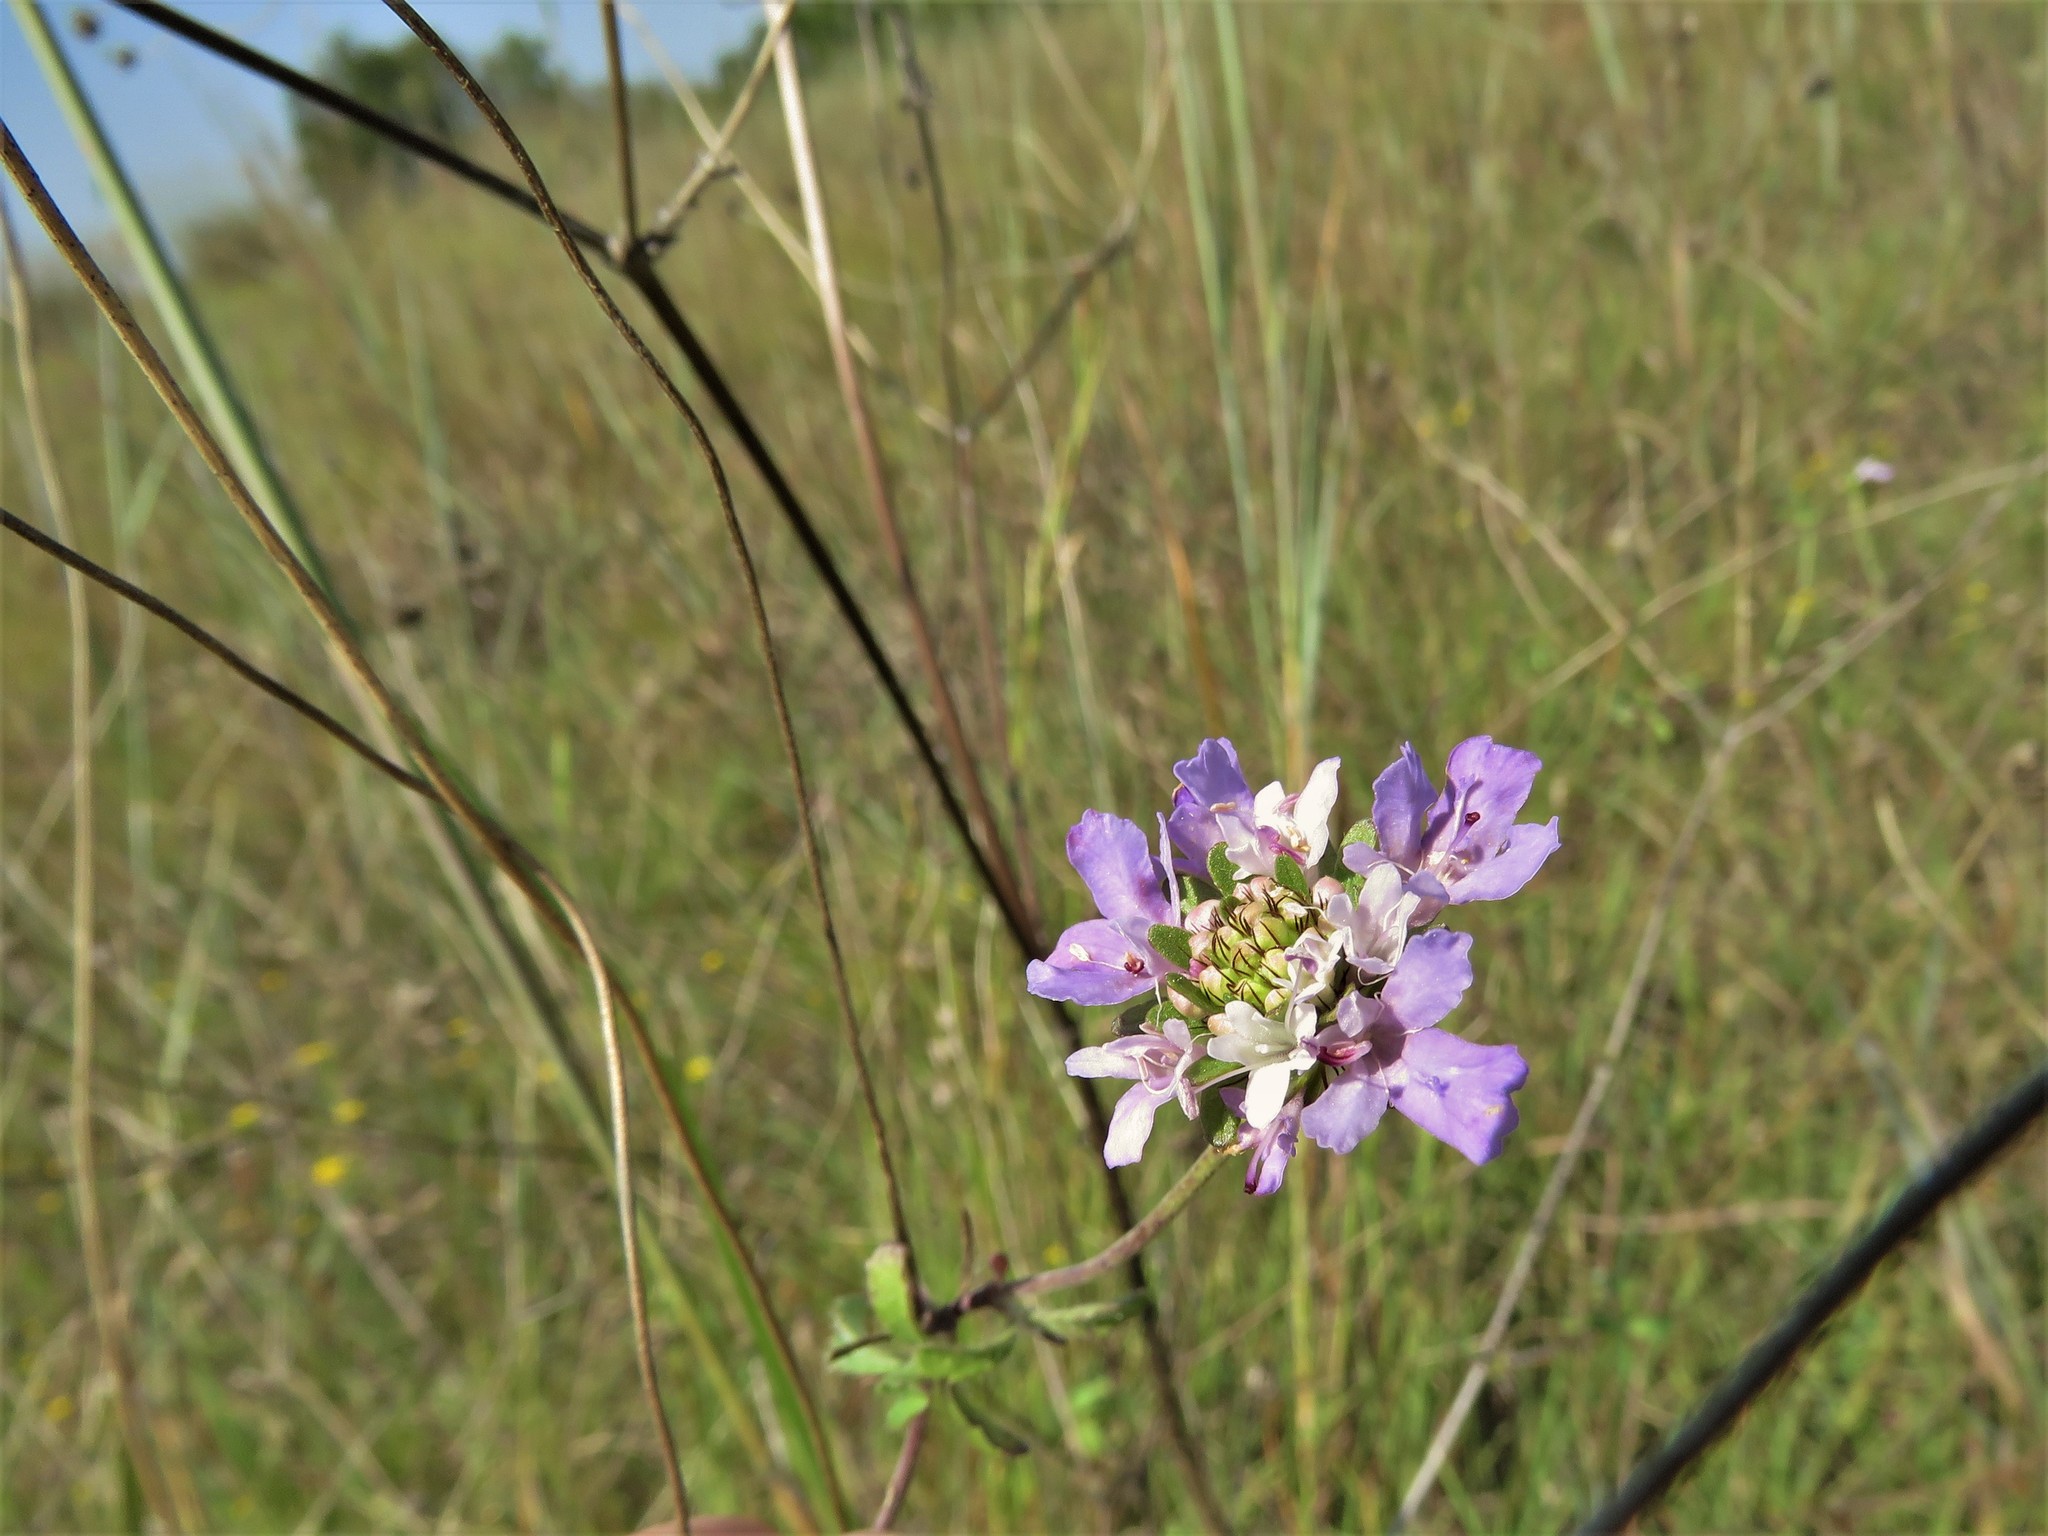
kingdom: Plantae
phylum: Tracheophyta
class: Magnoliopsida
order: Dipsacales
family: Caprifoliaceae
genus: Sixalix
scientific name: Sixalix atropurpurea
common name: Sweet scabious
